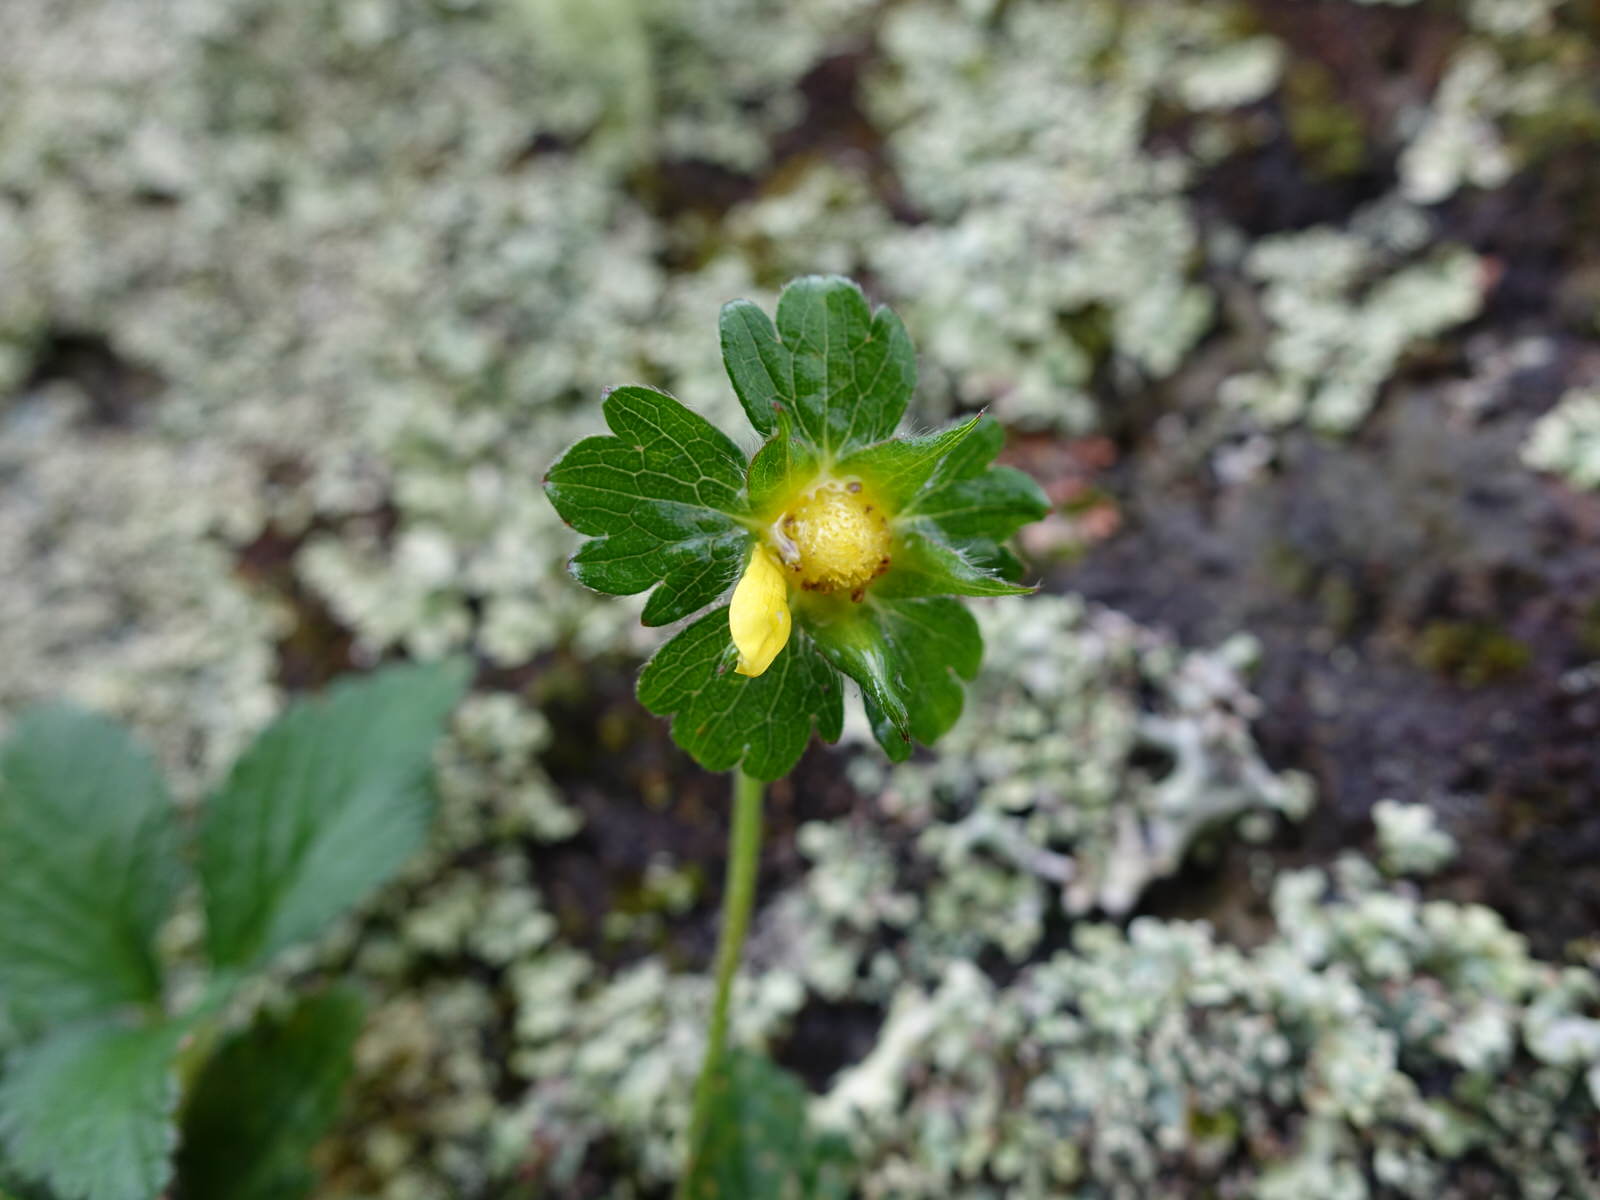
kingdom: Plantae
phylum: Tracheophyta
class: Magnoliopsida
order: Rosales
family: Rosaceae
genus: Potentilla
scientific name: Potentilla indica
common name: Yellow-flowered strawberry
